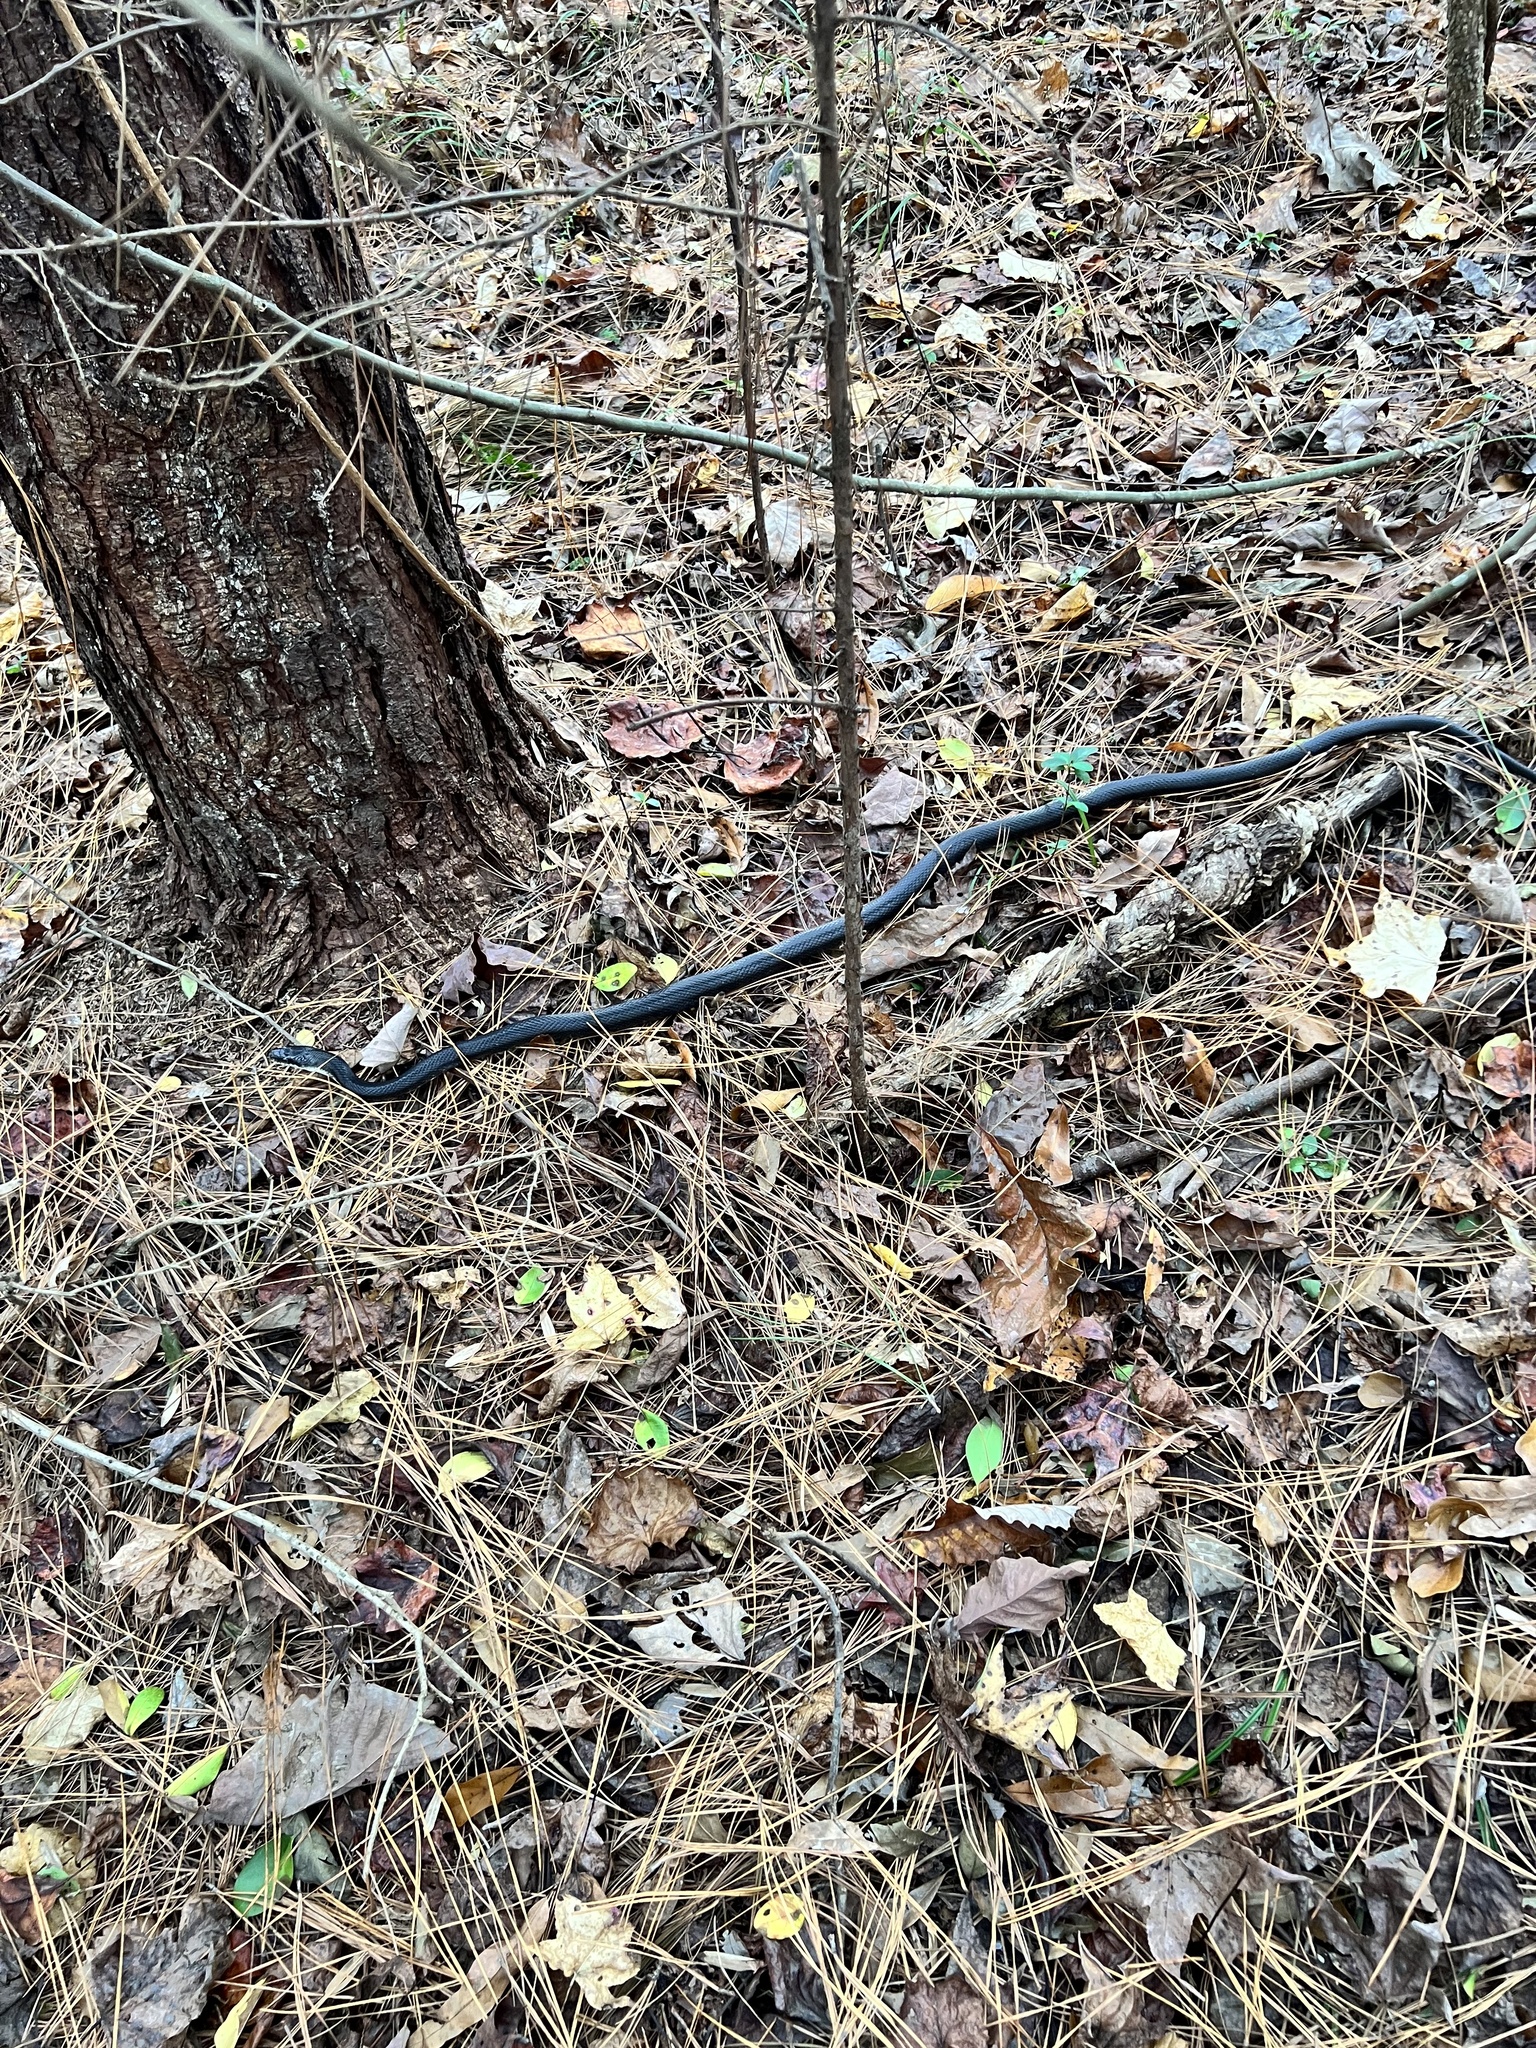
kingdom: Animalia
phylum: Chordata
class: Squamata
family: Colubridae
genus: Pantherophis
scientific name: Pantherophis
